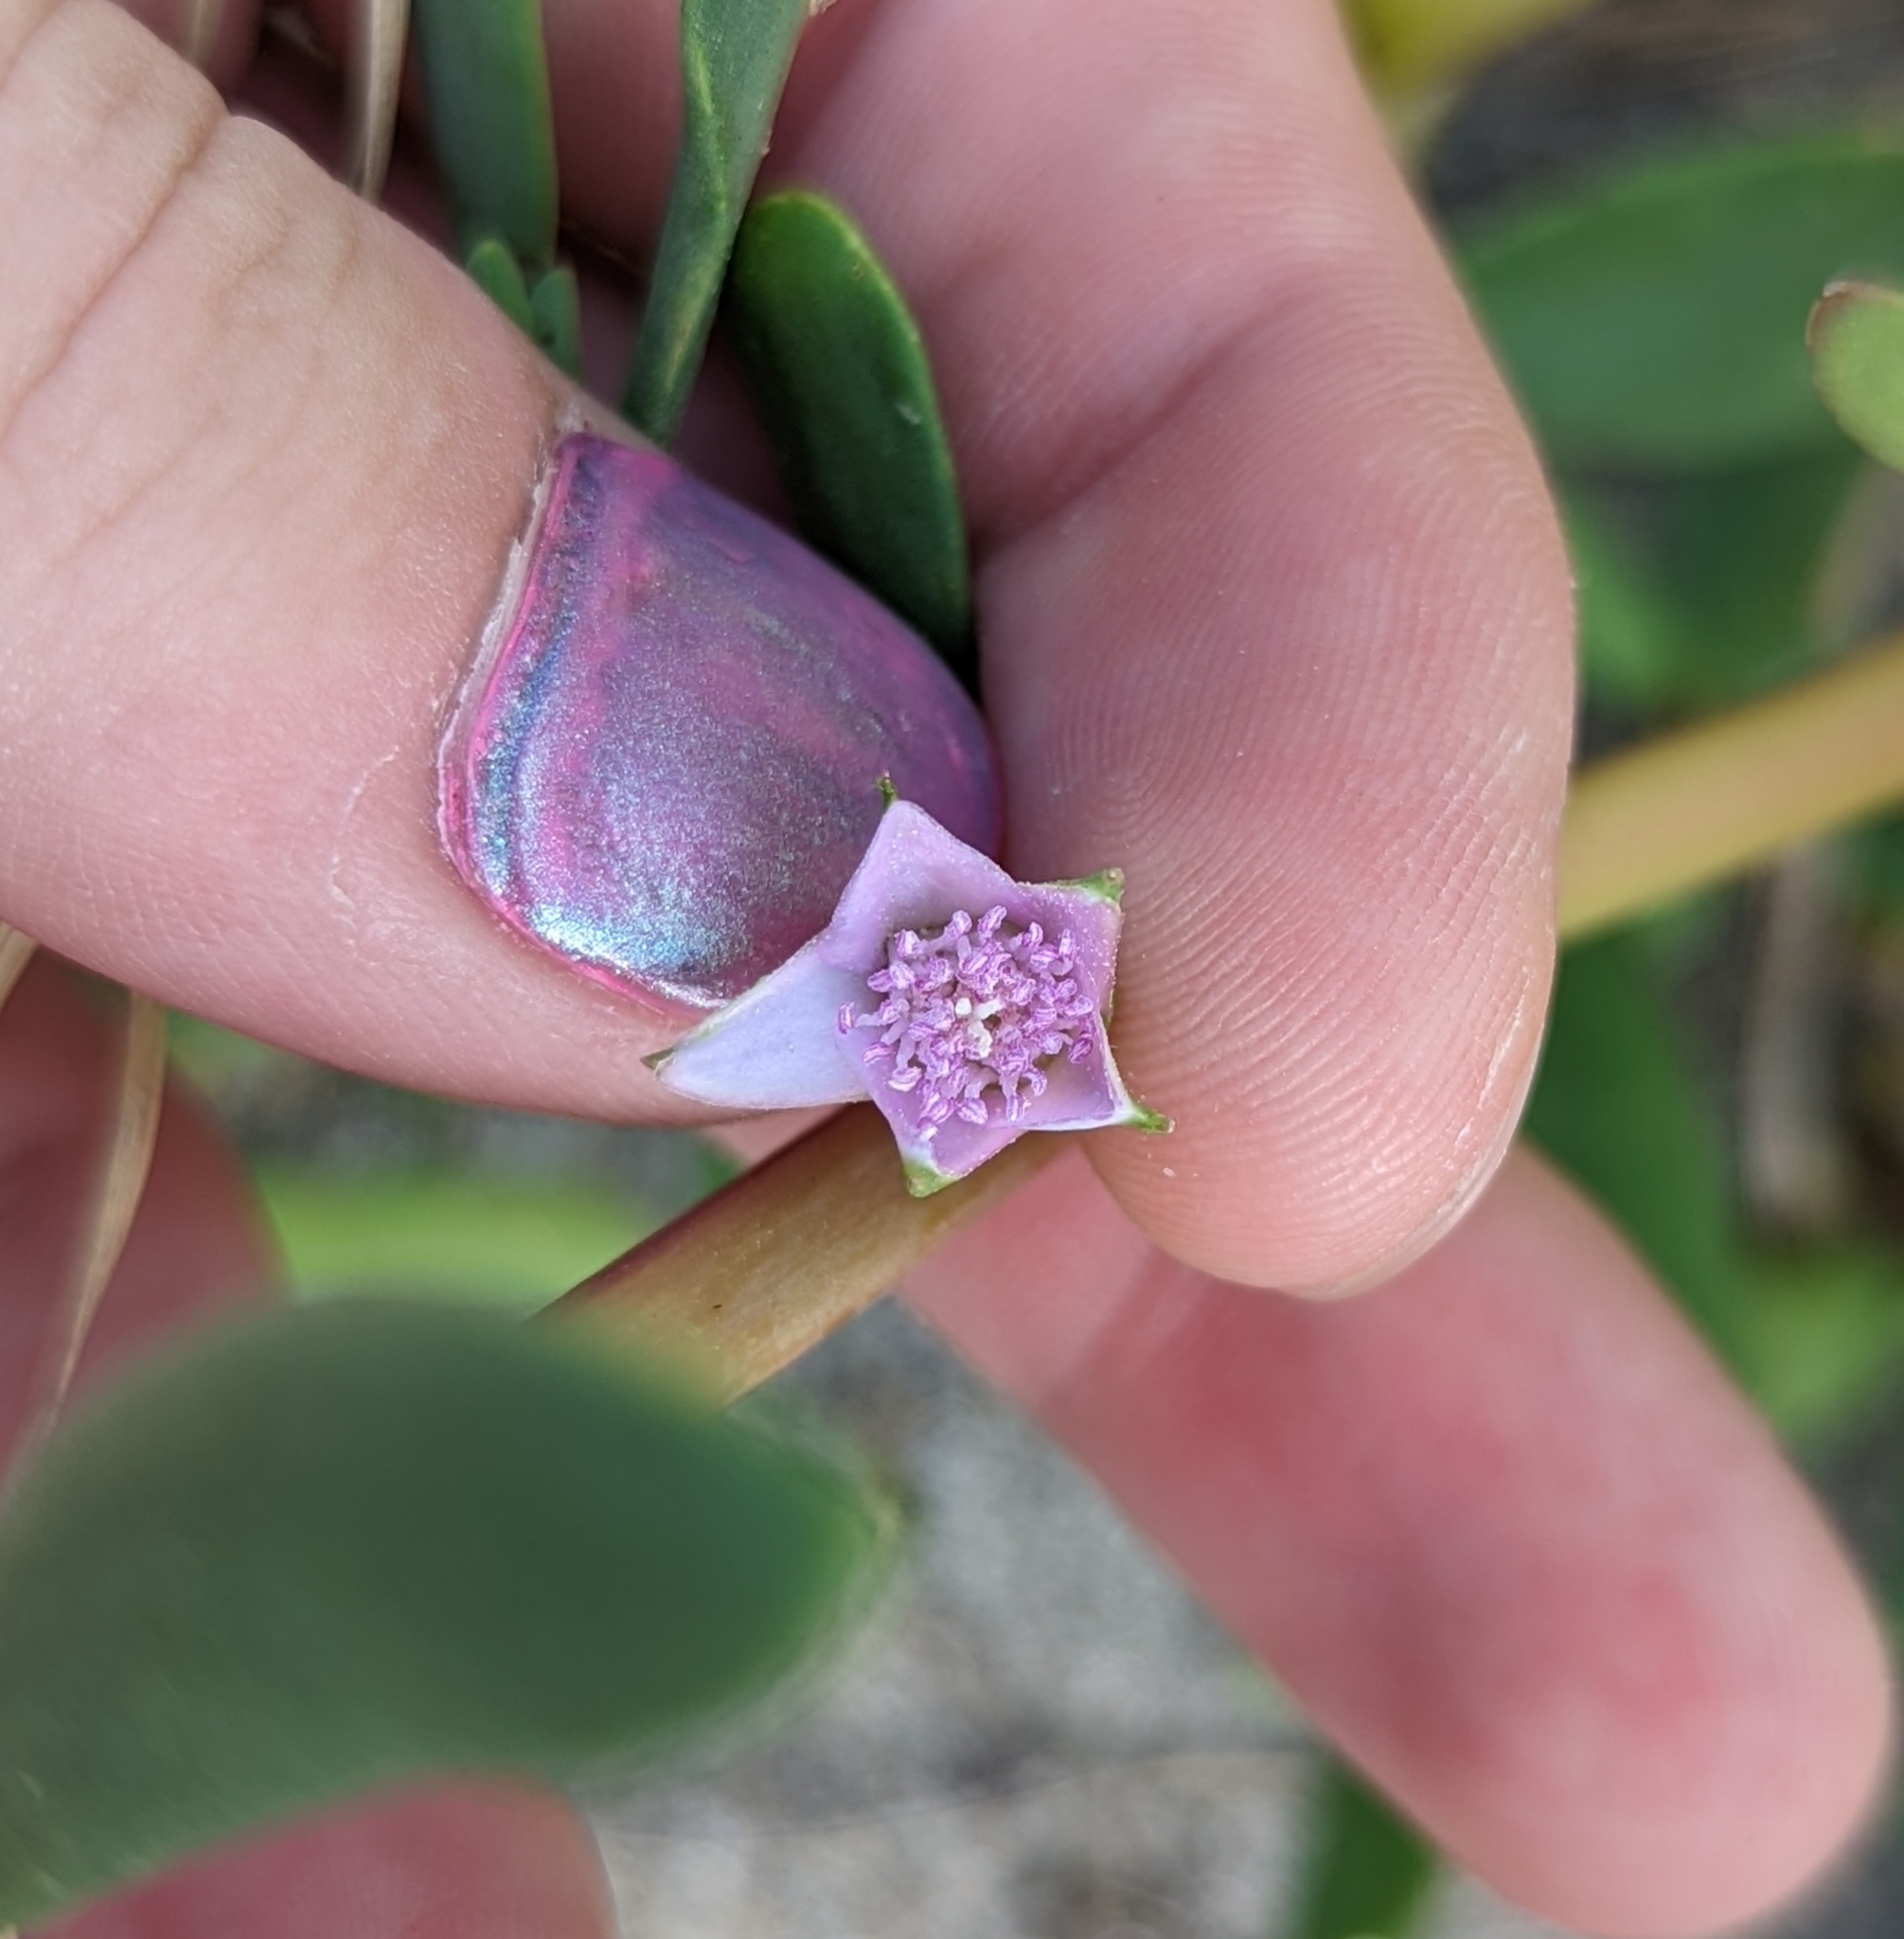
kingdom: Plantae
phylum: Tracheophyta
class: Magnoliopsida
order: Caryophyllales
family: Aizoaceae
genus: Sesuvium
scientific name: Sesuvium portulacastrum
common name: Sea-purslane
